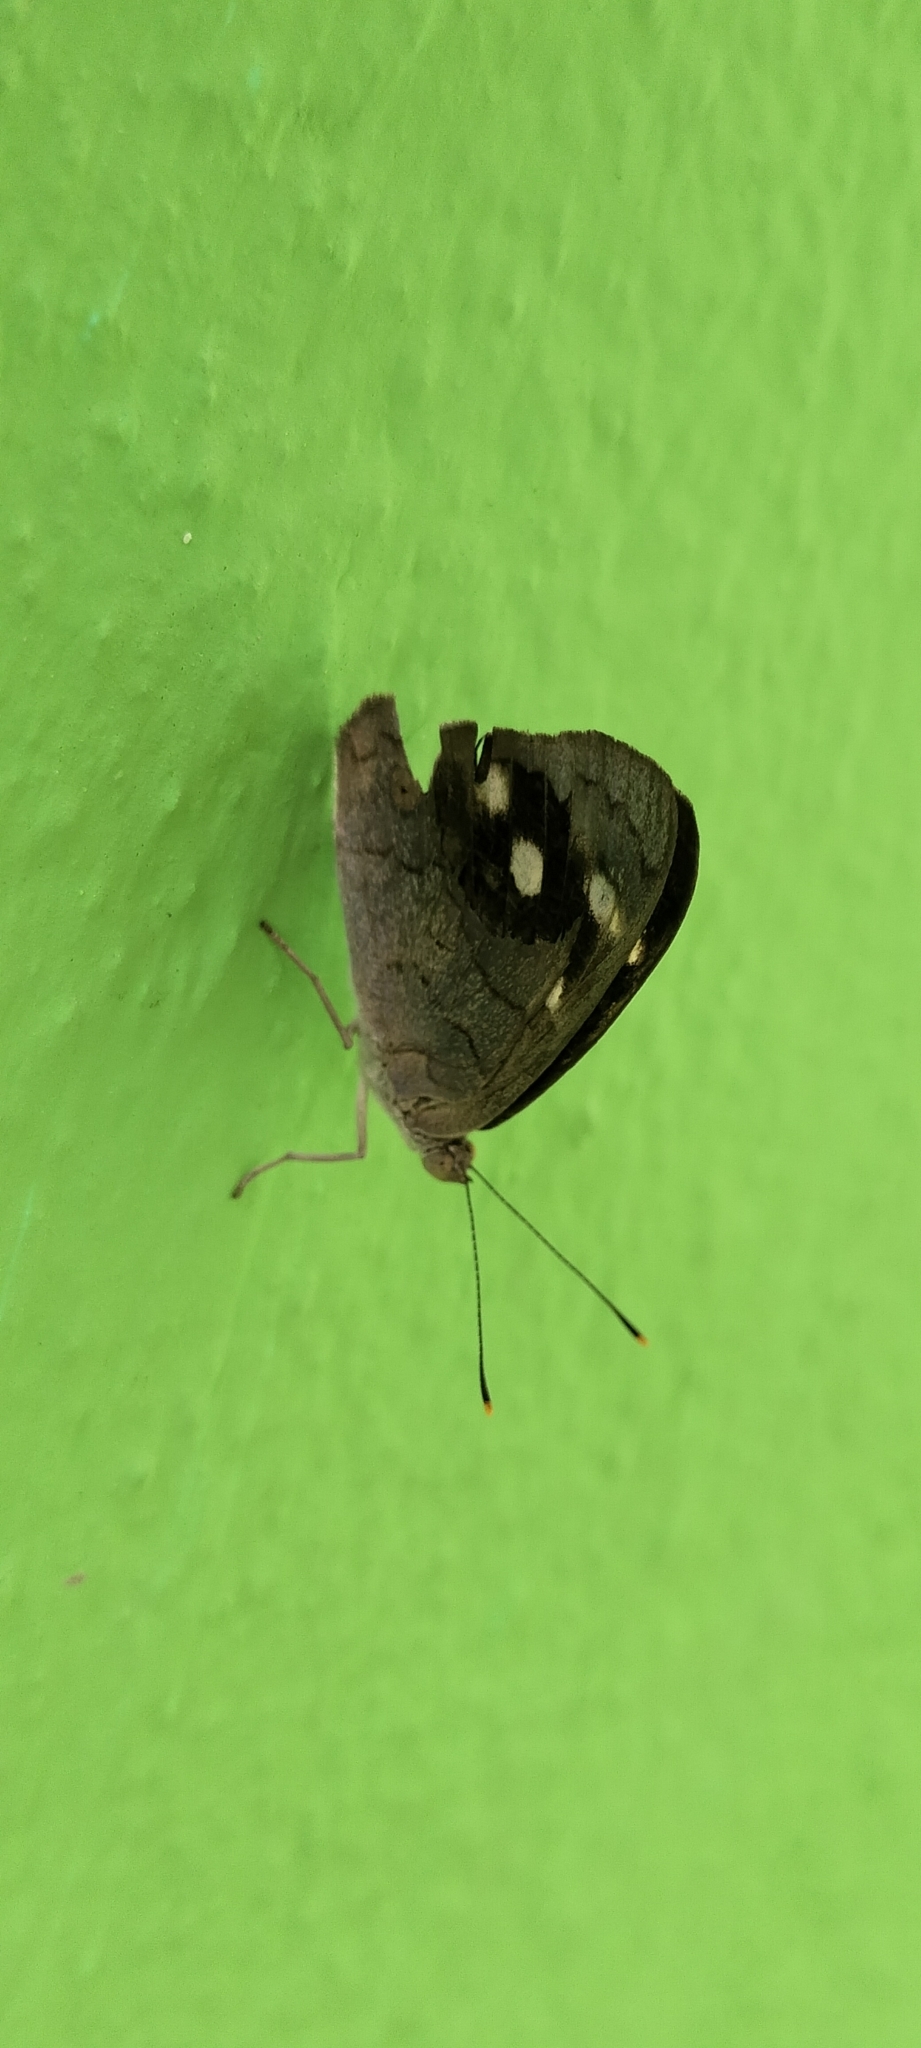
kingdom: Animalia
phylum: Arthropoda
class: Insecta
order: Lepidoptera
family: Nymphalidae
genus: Eunica
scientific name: Eunica monima
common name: Dingy purplewing
